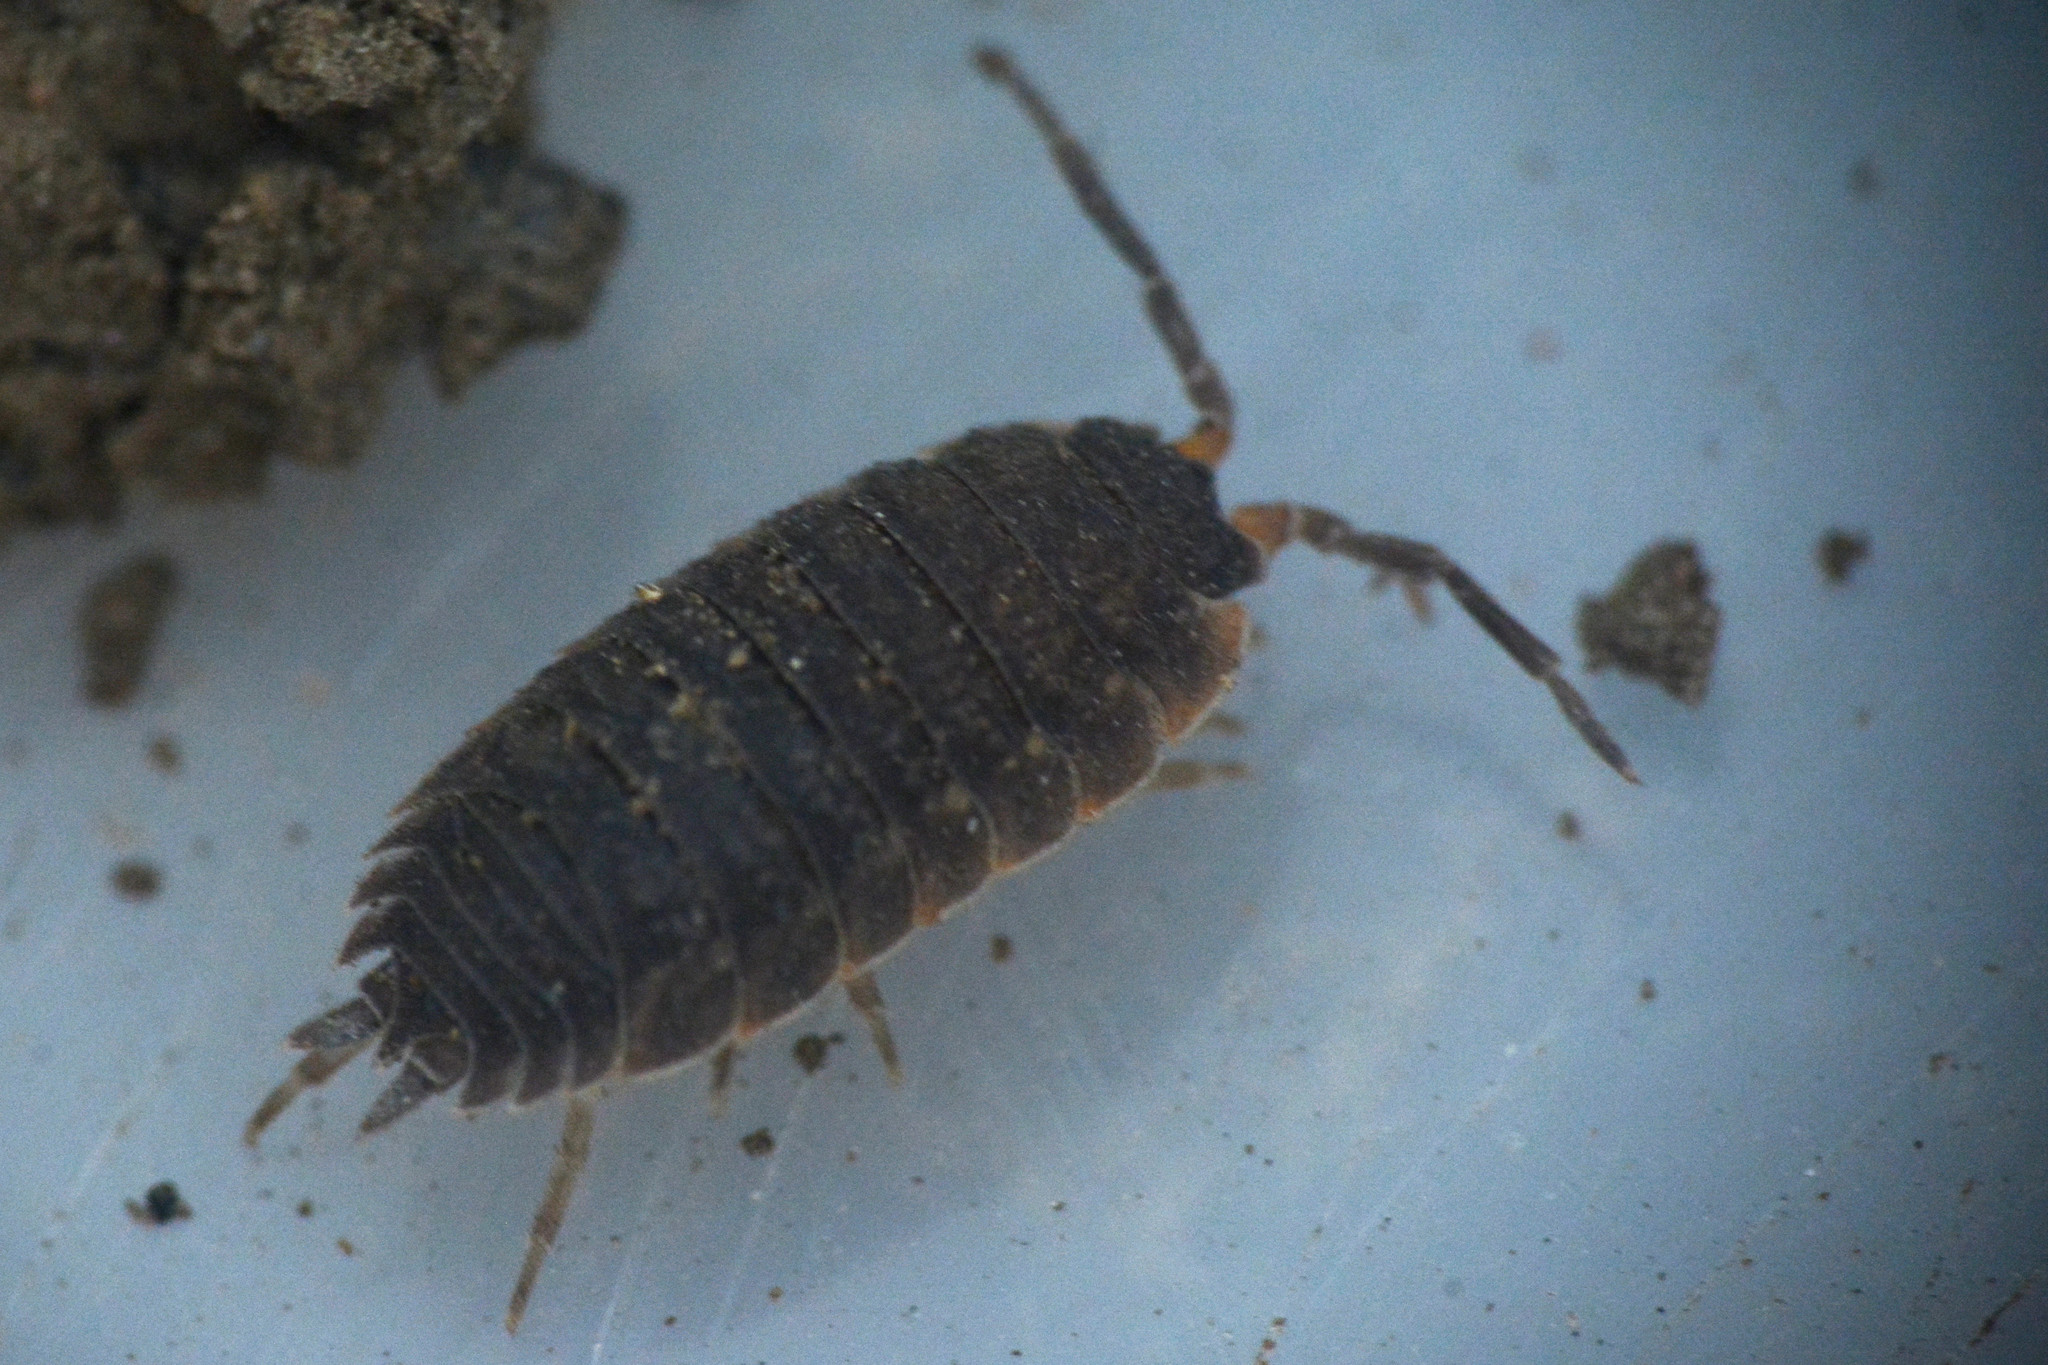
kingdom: Animalia
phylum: Arthropoda
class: Malacostraca
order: Isopoda
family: Porcellionidae
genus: Porcellio
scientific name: Porcellio scaber
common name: Common rough woodlouse
